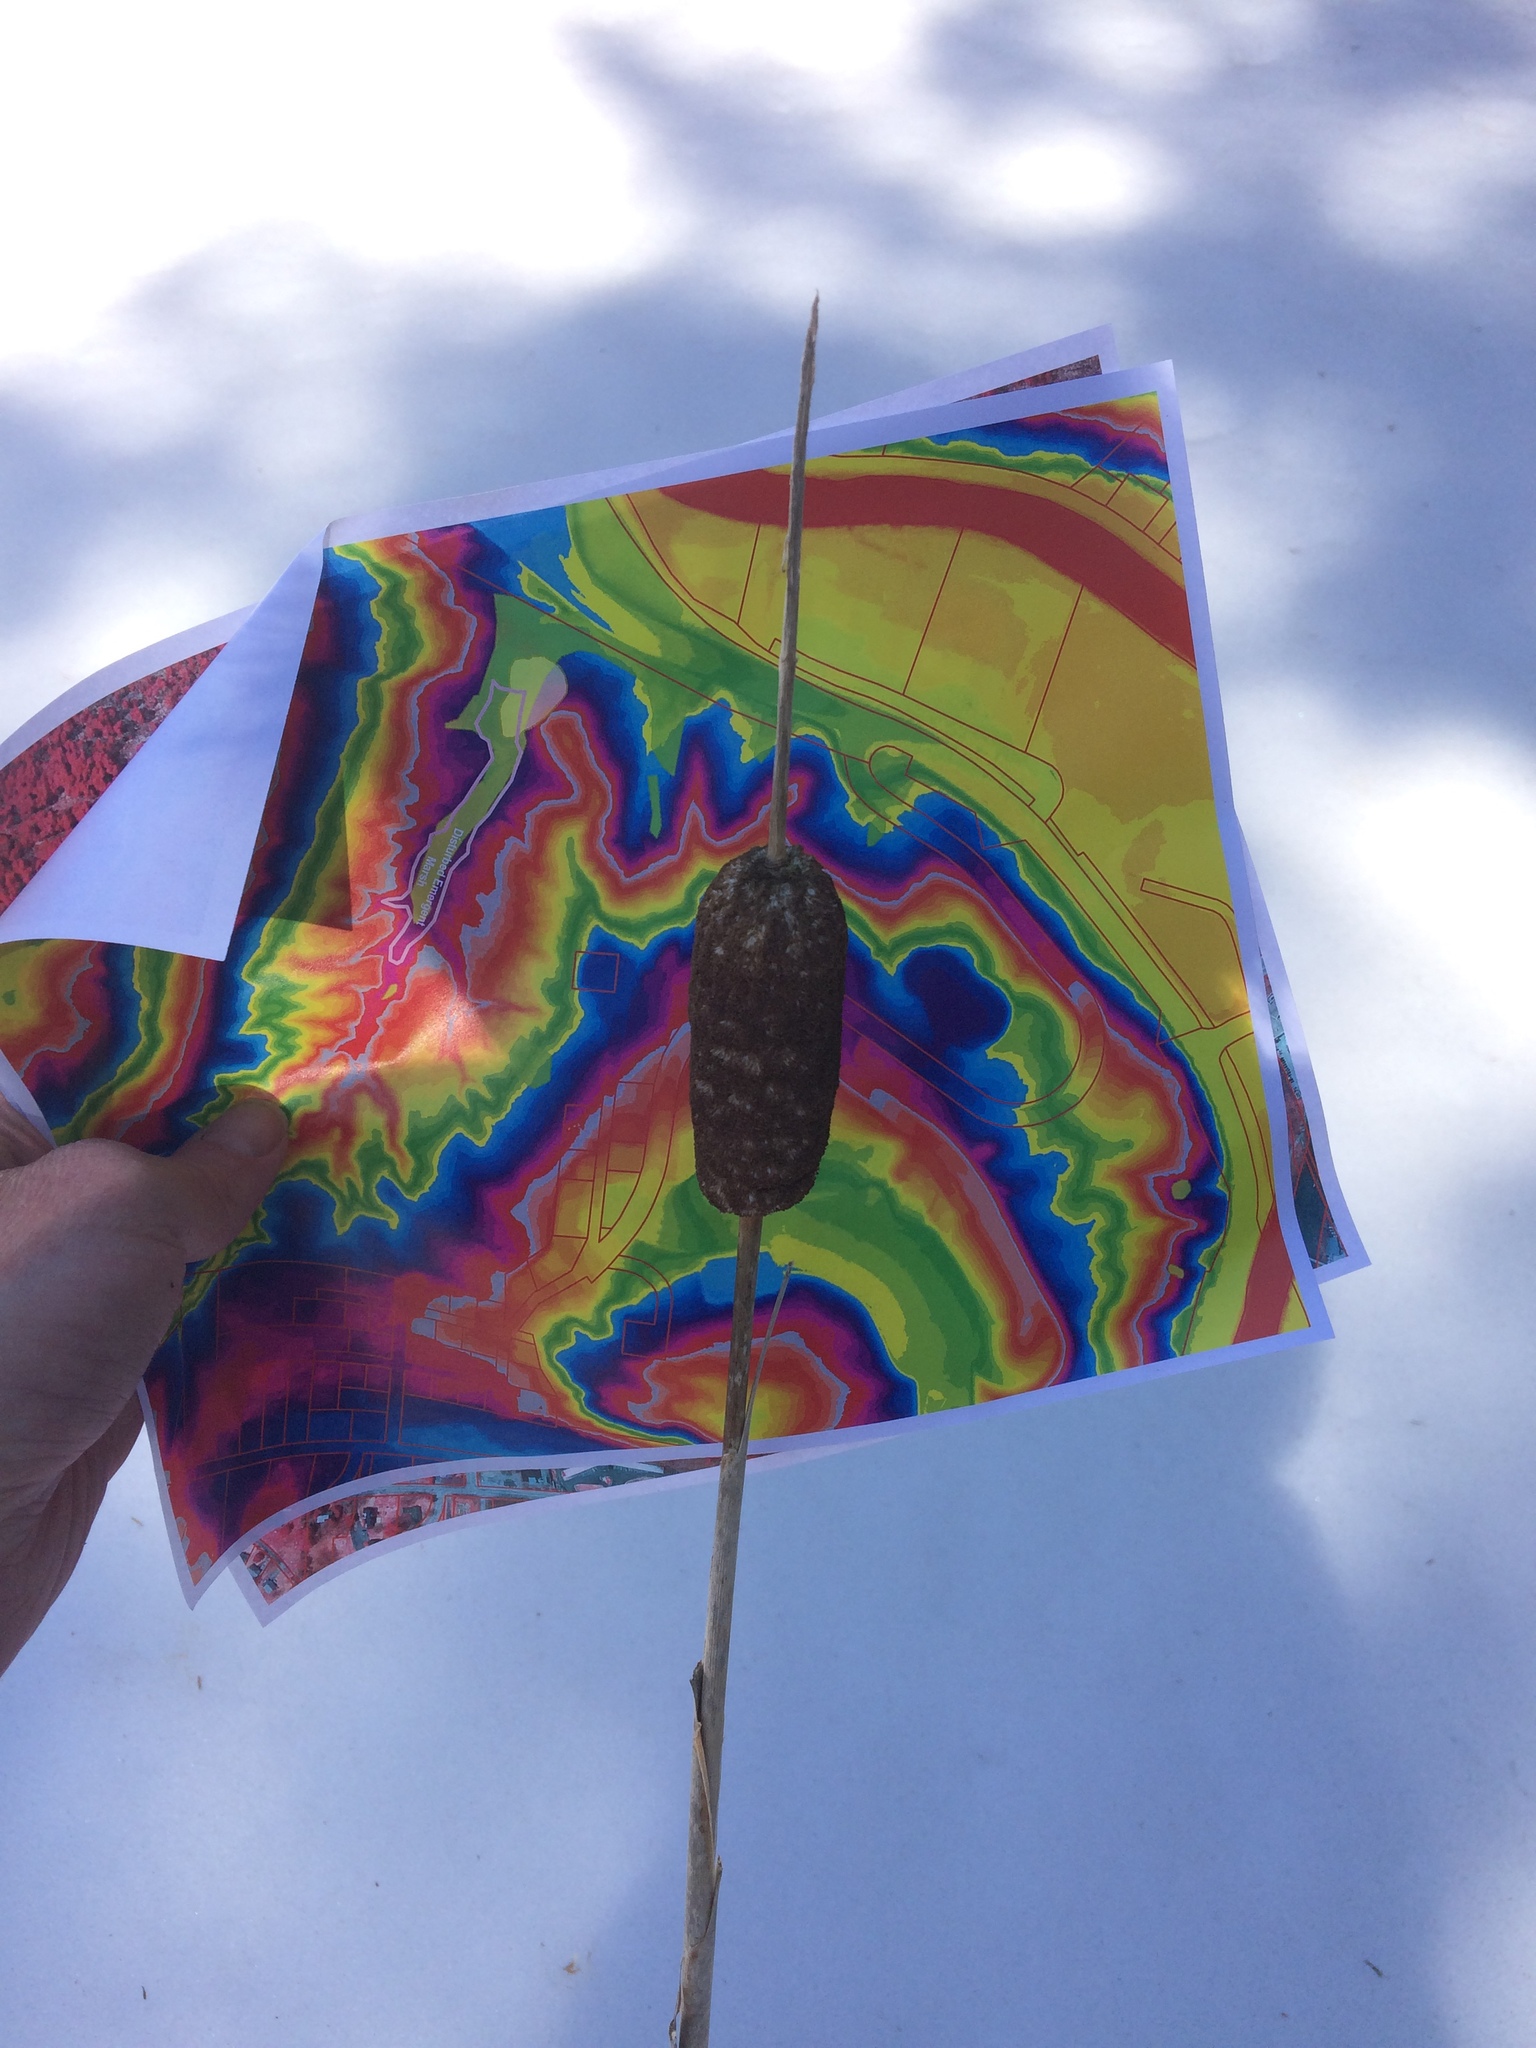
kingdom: Plantae
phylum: Tracheophyta
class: Liliopsida
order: Poales
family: Typhaceae
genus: Typha
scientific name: Typha latifolia
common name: Broadleaf cattail
